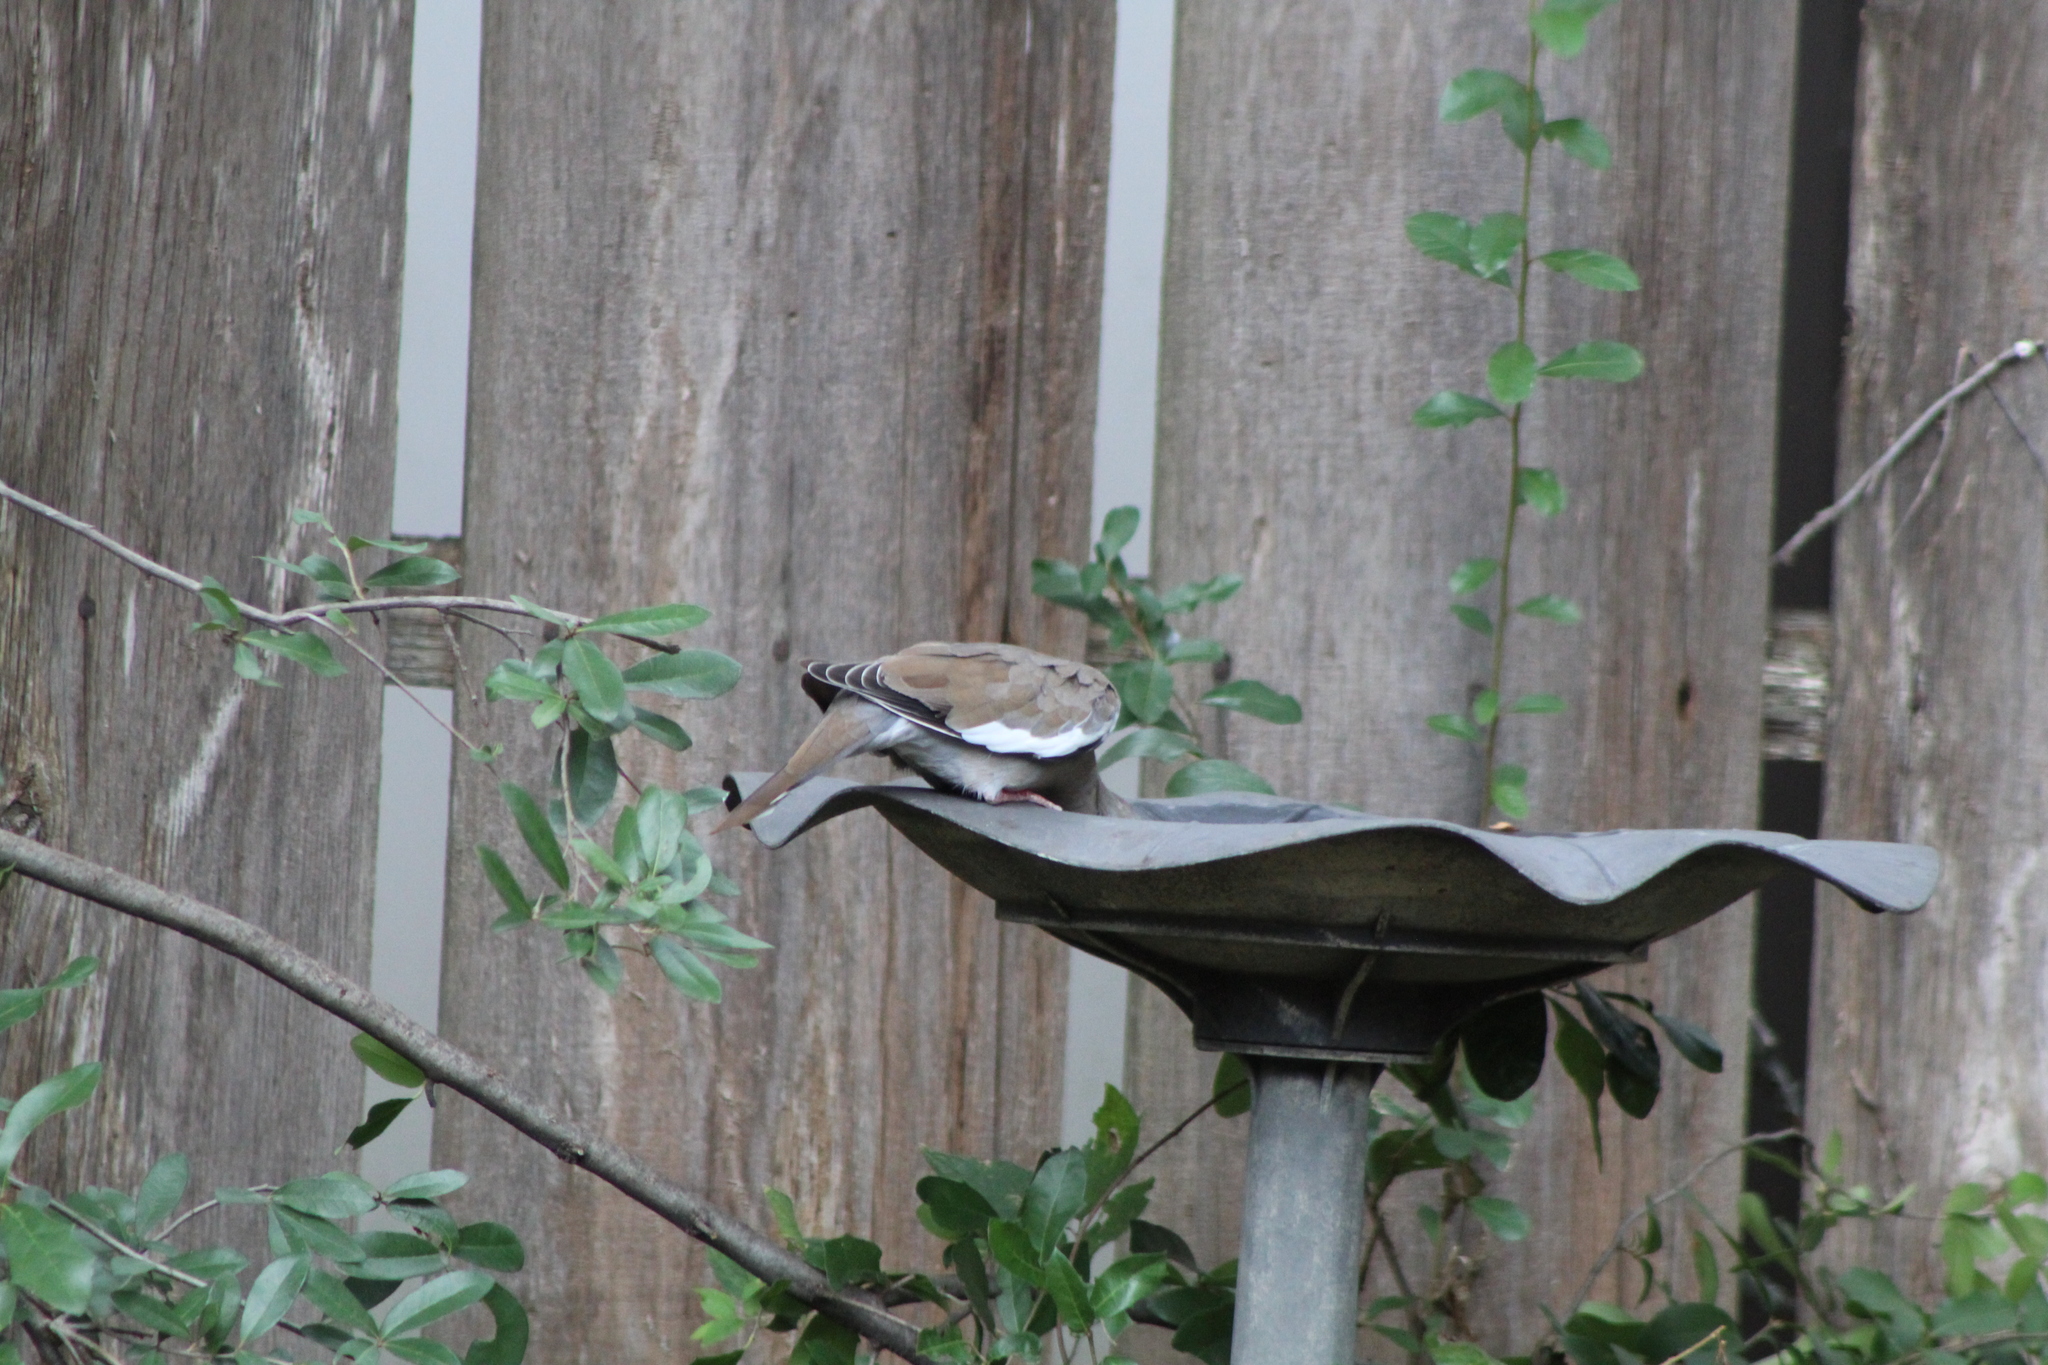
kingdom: Animalia
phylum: Chordata
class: Aves
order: Columbiformes
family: Columbidae
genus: Zenaida
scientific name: Zenaida asiatica
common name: White-winged dove
